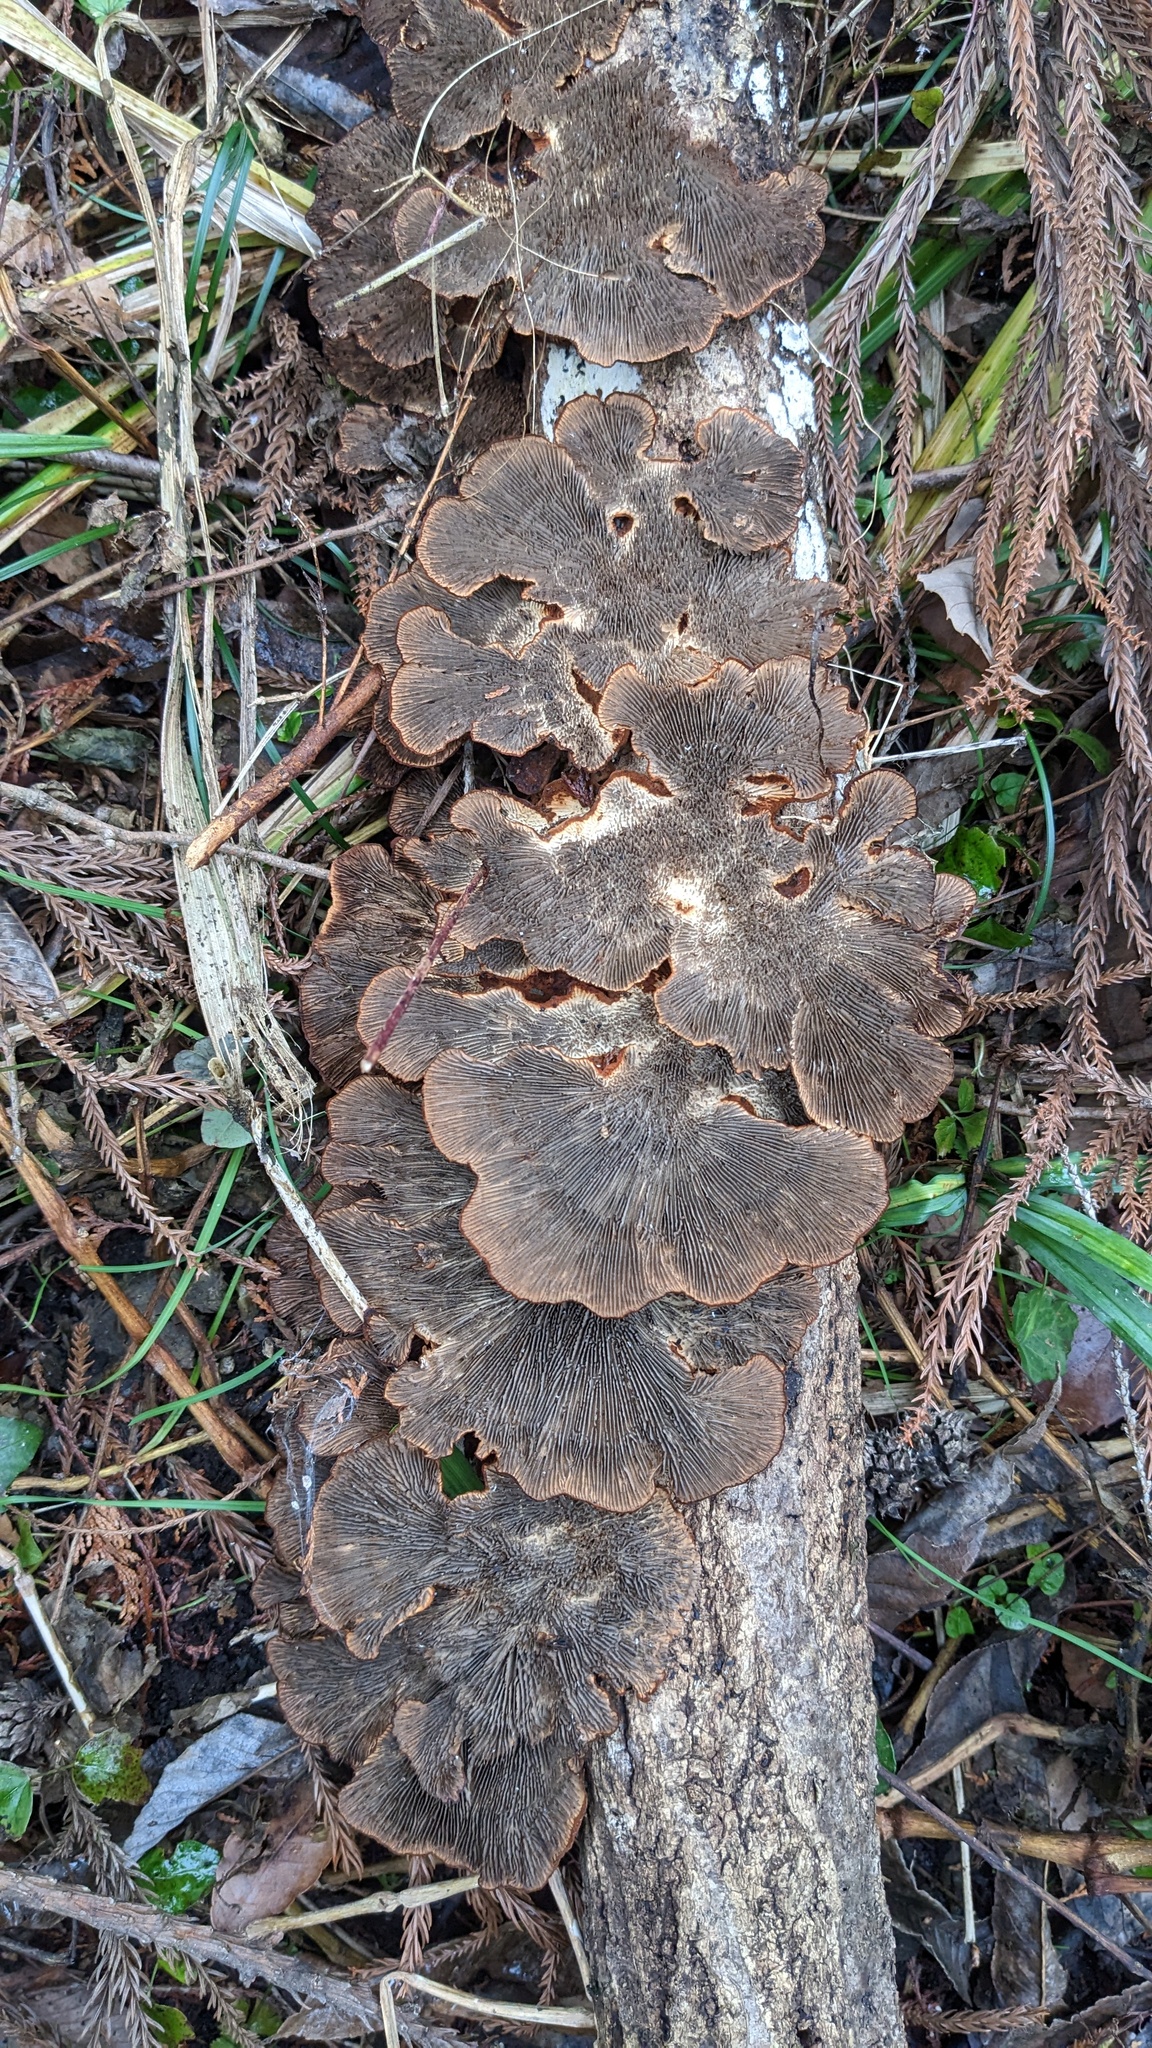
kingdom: Fungi
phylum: Basidiomycota
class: Agaricomycetes
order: Polyporales
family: Polyporaceae
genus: Daedaleopsis
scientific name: Daedaleopsis tricolor
